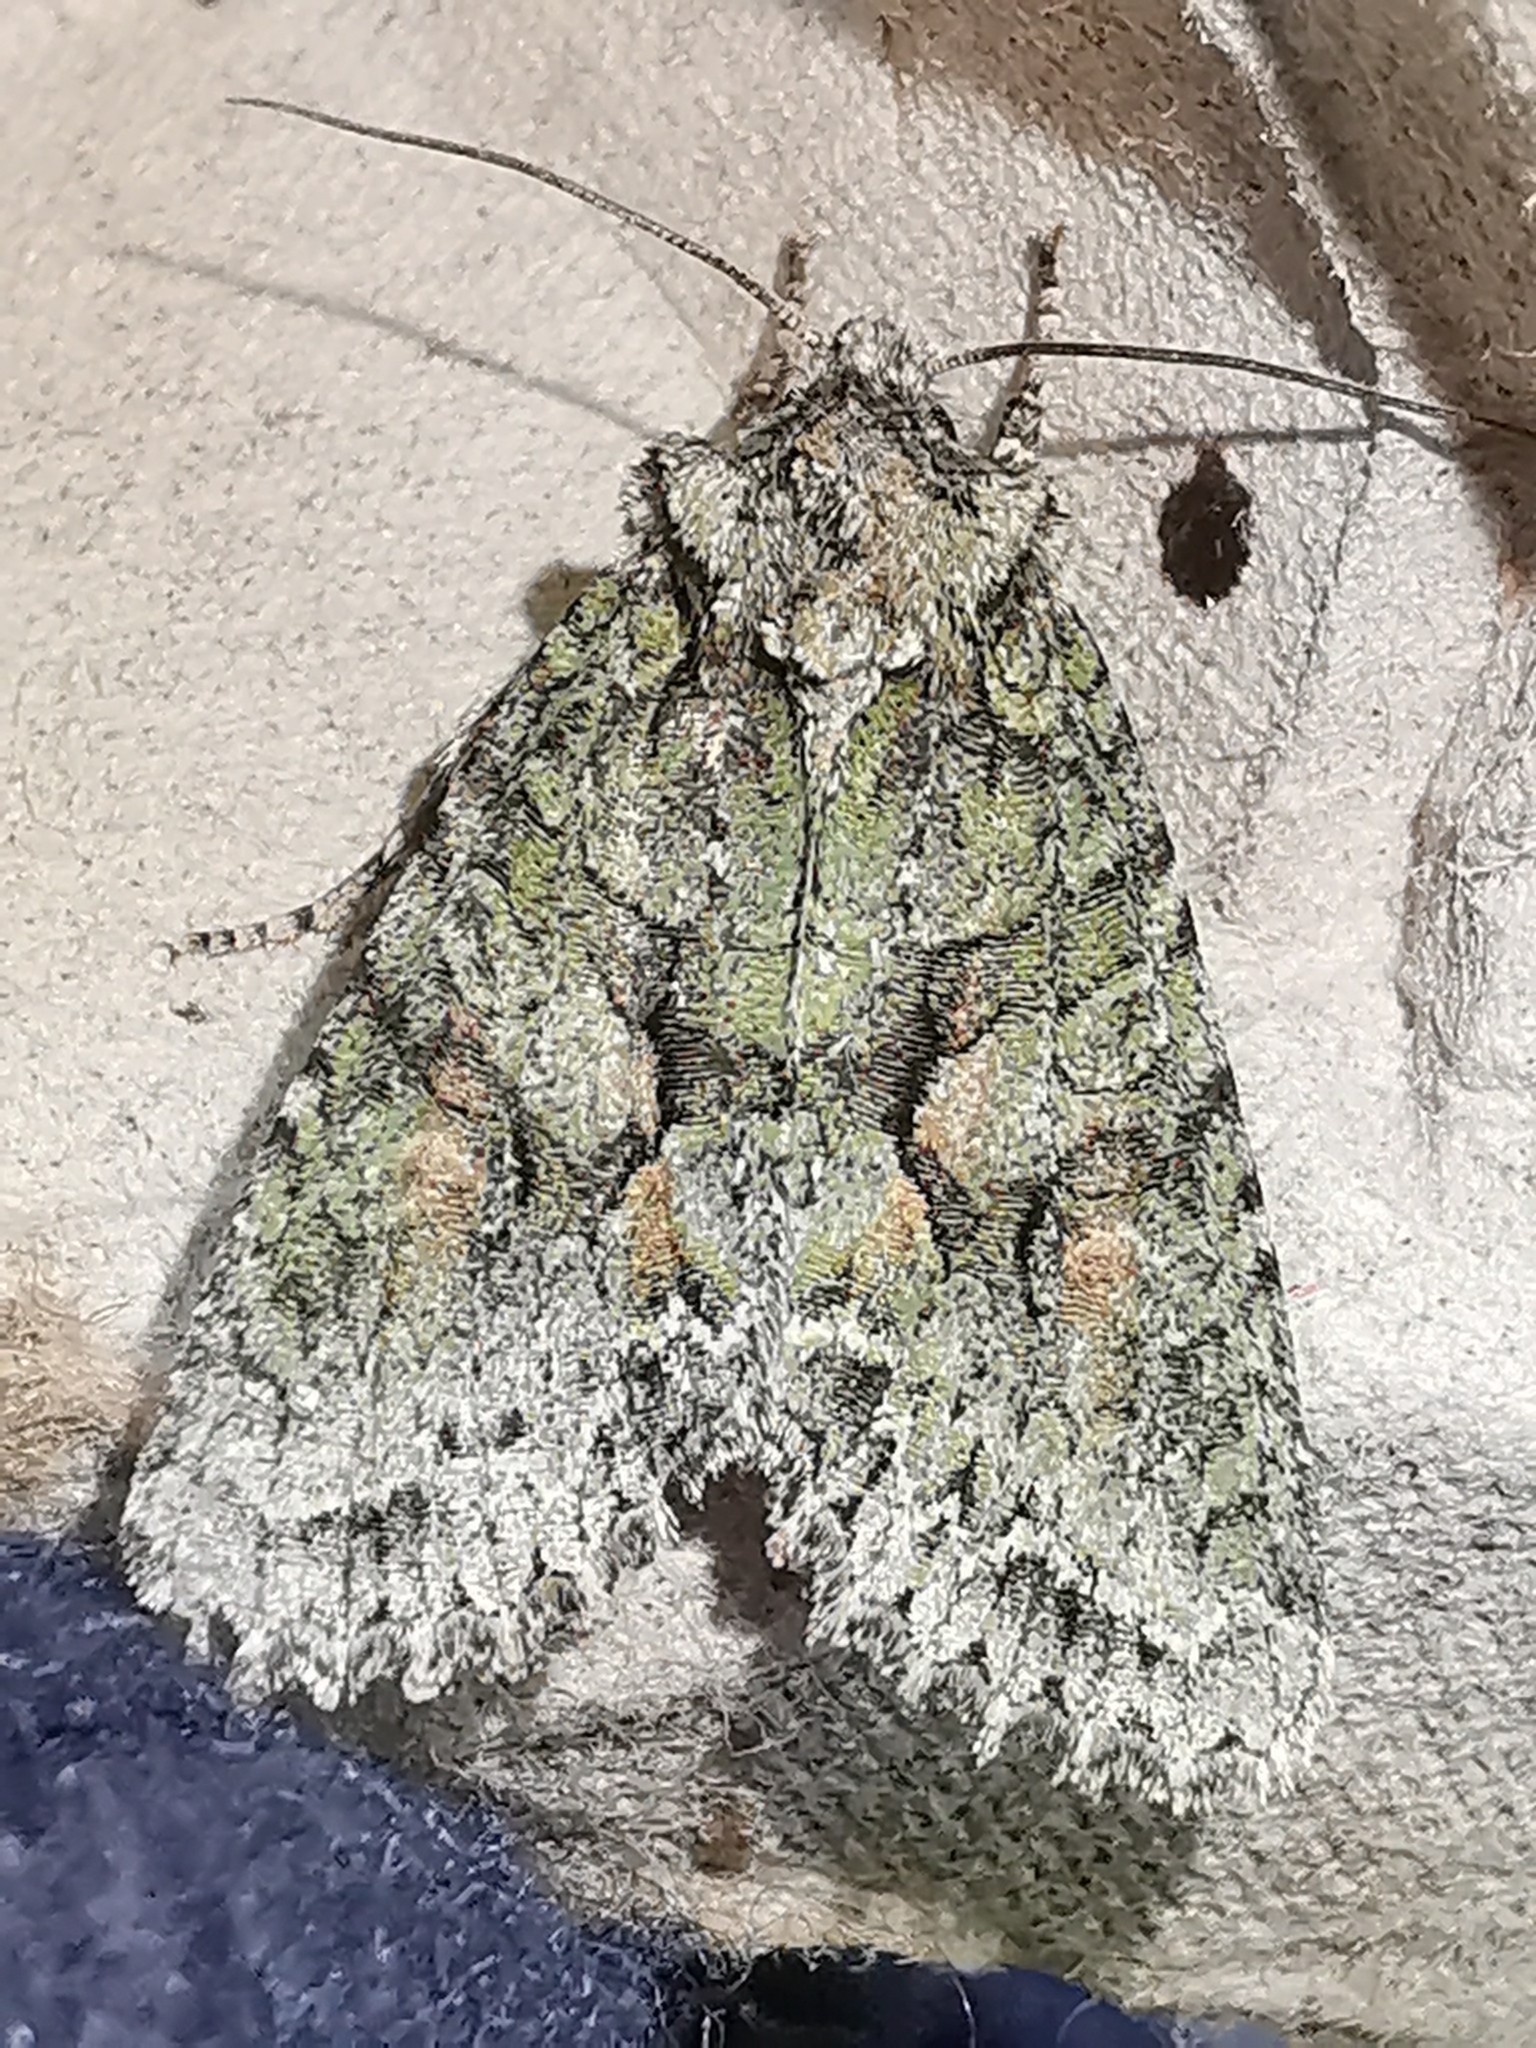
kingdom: Animalia
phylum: Arthropoda
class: Insecta
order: Lepidoptera
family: Noctuidae
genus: Dryobotodes
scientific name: Dryobotodes eremita
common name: Brindled green
